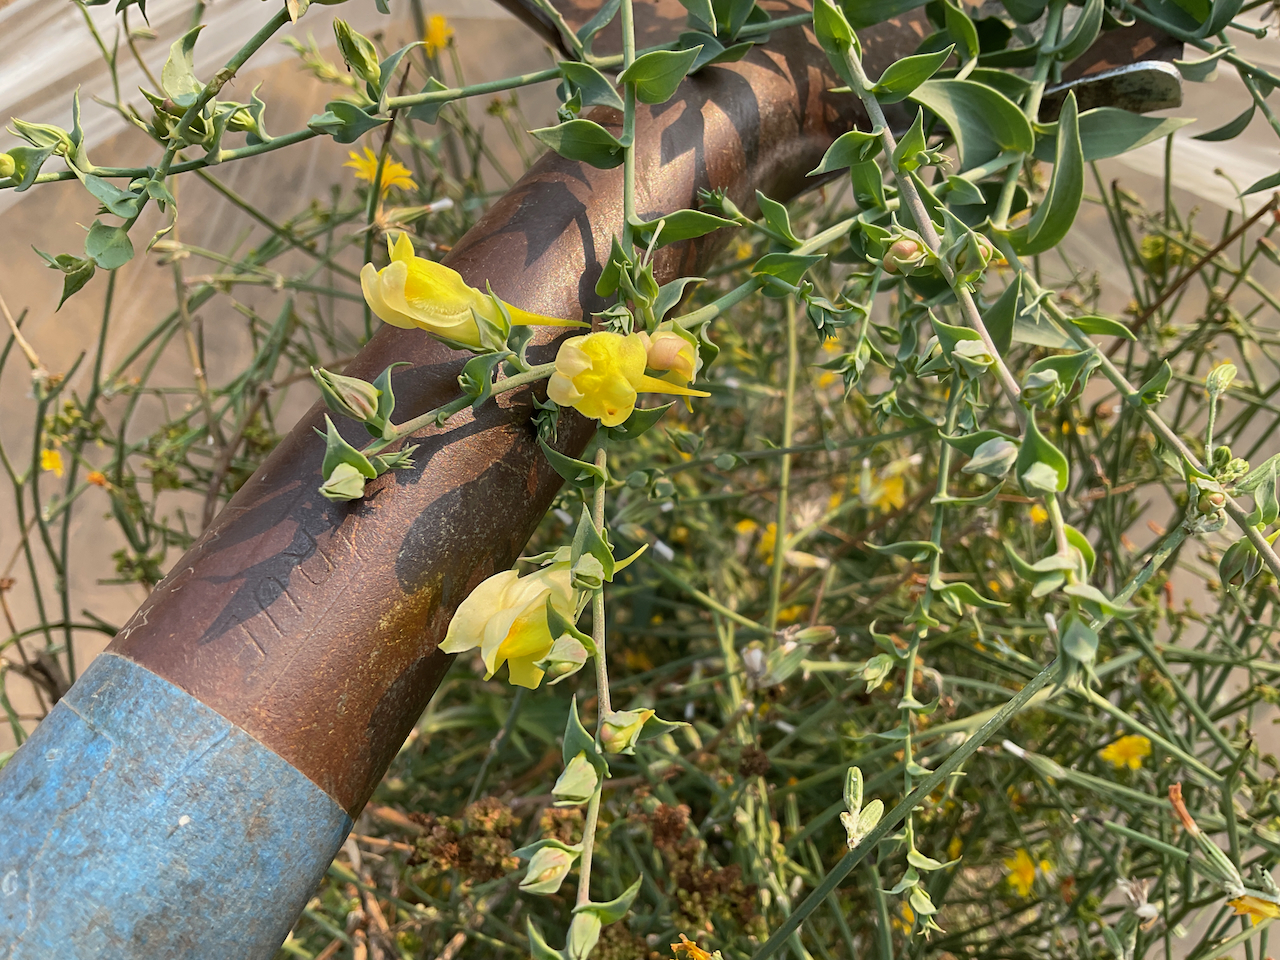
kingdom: Plantae
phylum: Tracheophyta
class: Magnoliopsida
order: Lamiales
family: Plantaginaceae
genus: Linaria
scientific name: Linaria dalmatica
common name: Dalmatian toadflax
